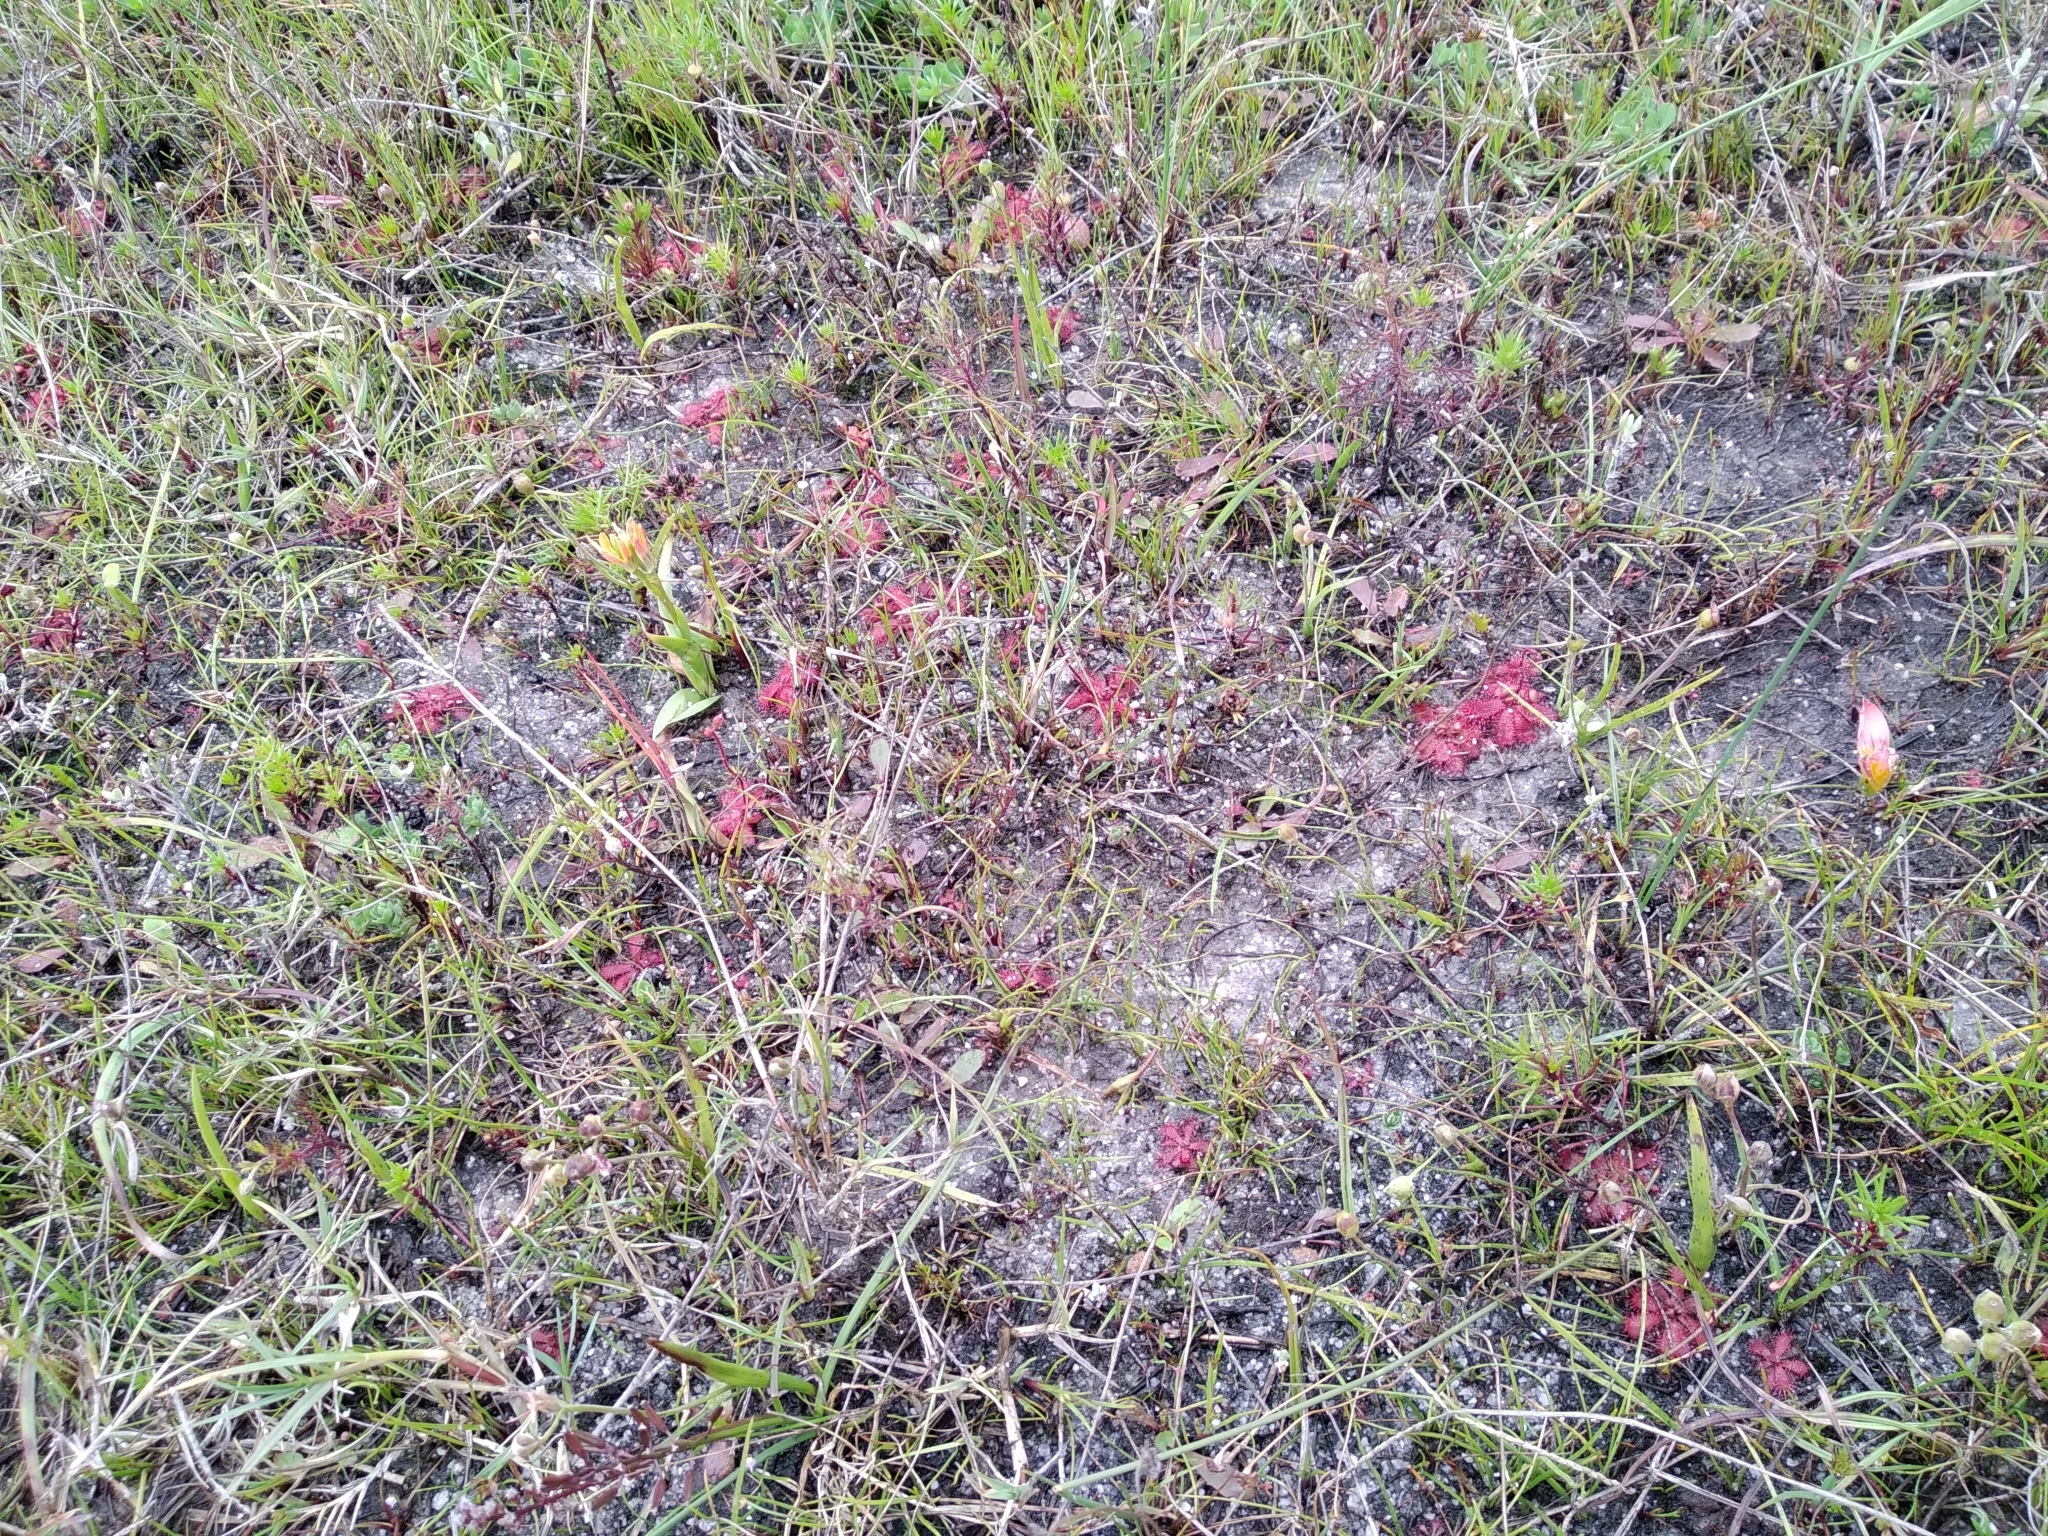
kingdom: Plantae
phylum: Tracheophyta
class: Magnoliopsida
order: Caryophyllales
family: Droseraceae
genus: Drosera
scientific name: Drosera trinervia
